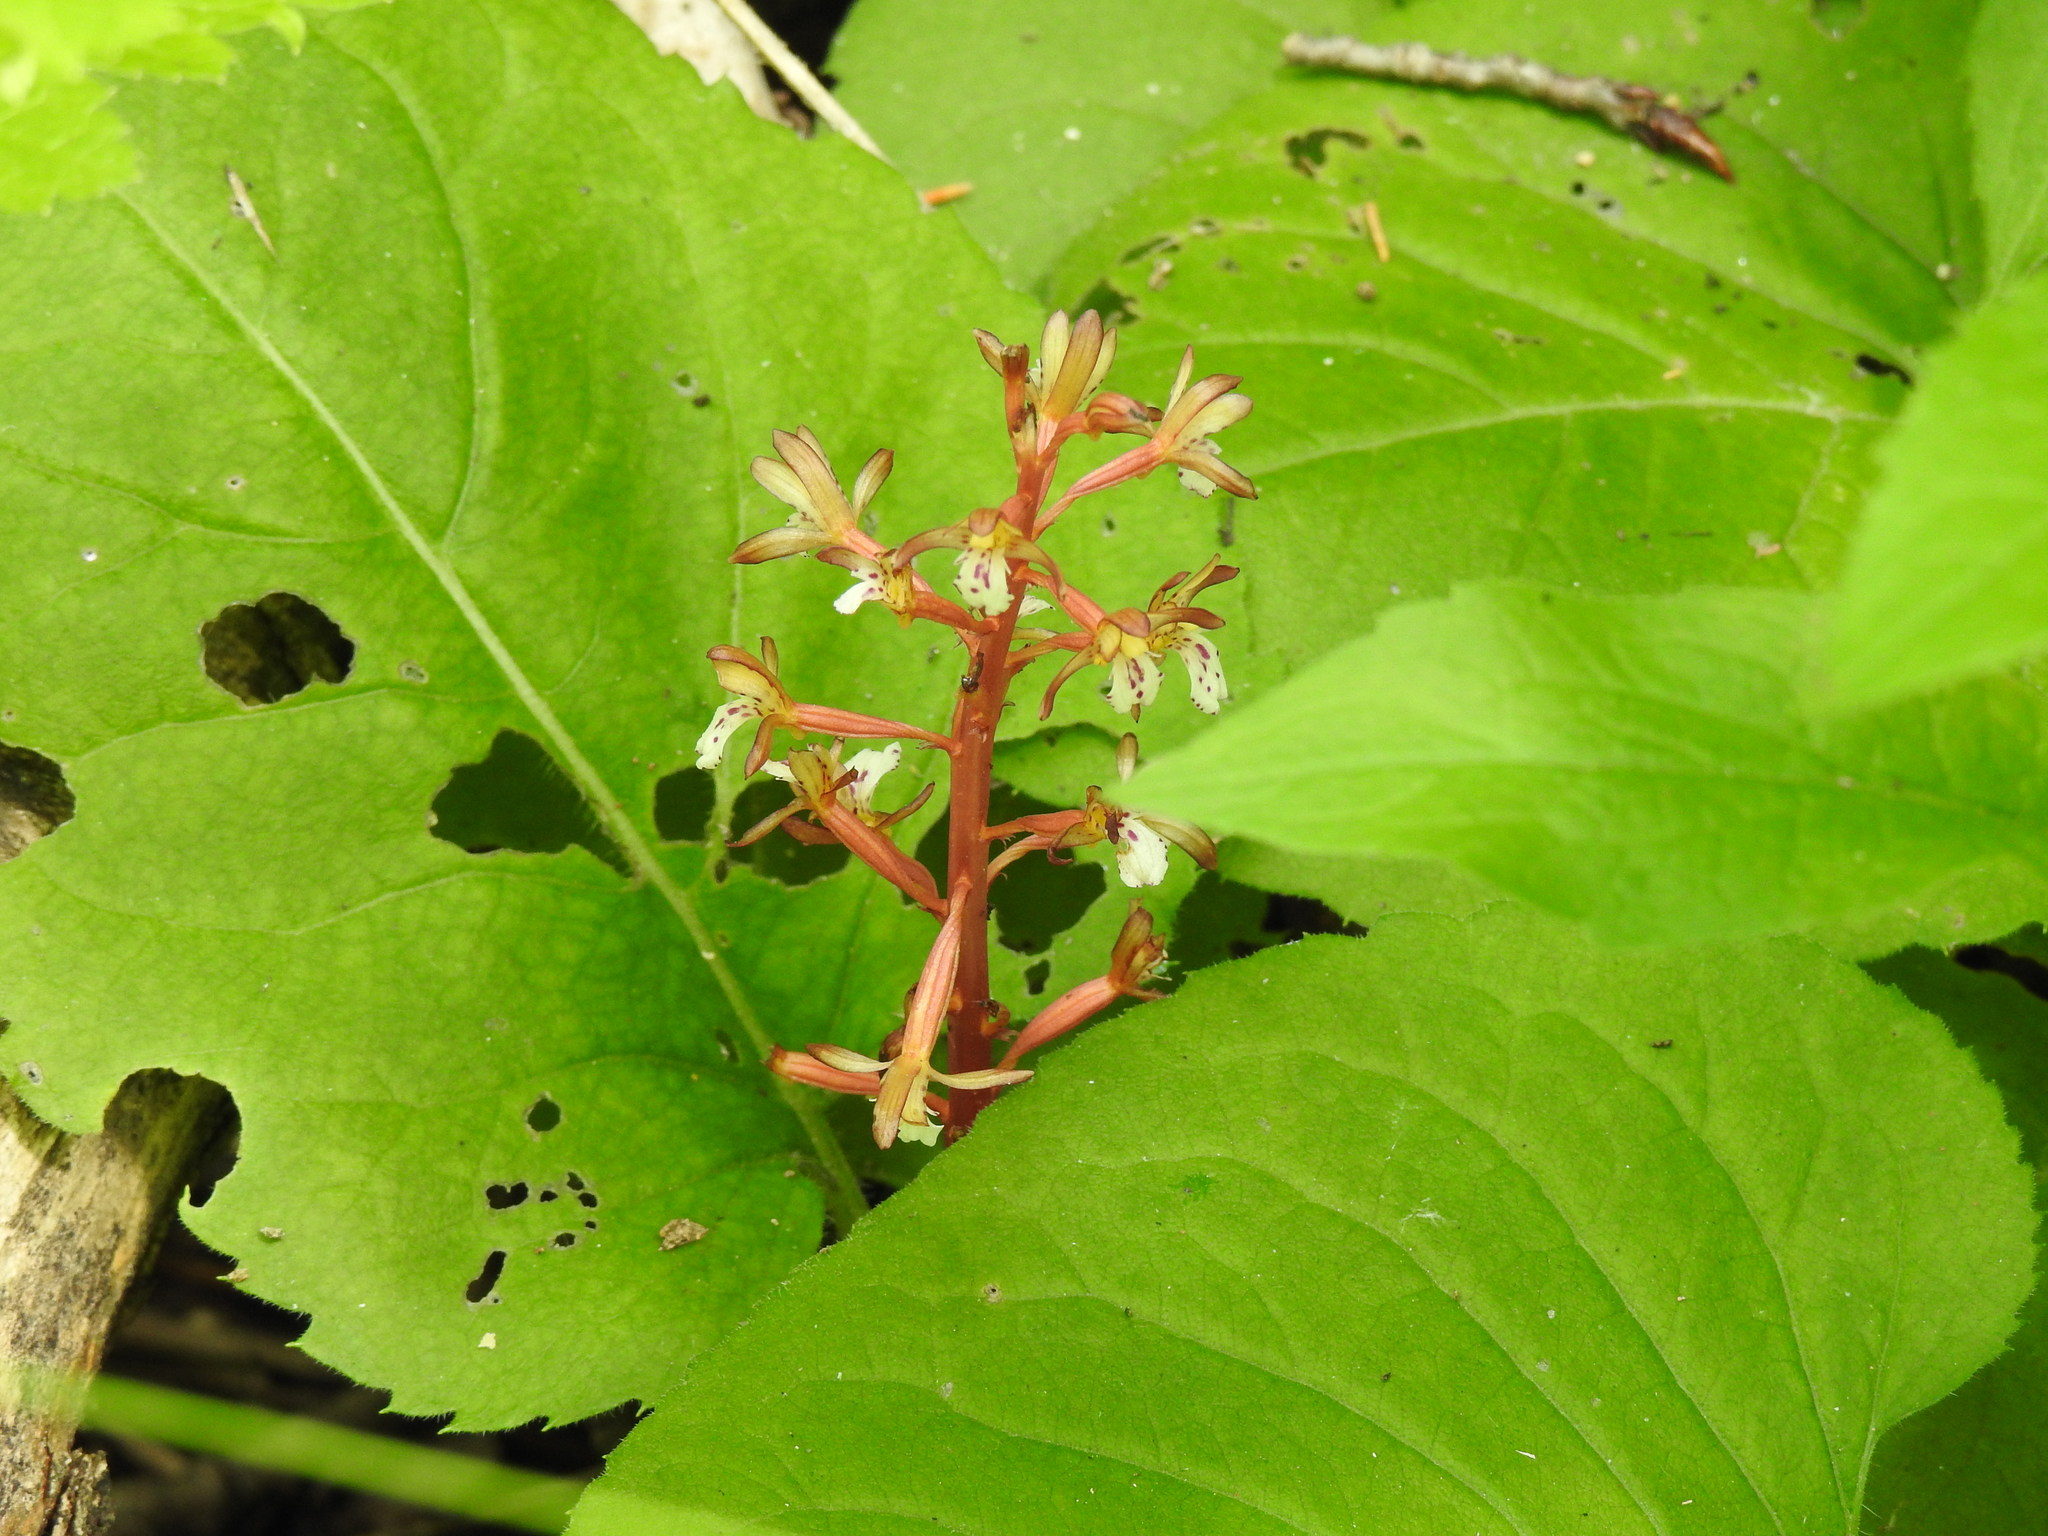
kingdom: Plantae
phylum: Tracheophyta
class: Liliopsida
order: Asparagales
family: Orchidaceae
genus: Corallorhiza
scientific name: Corallorhiza maculata
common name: Spotted coralroot
